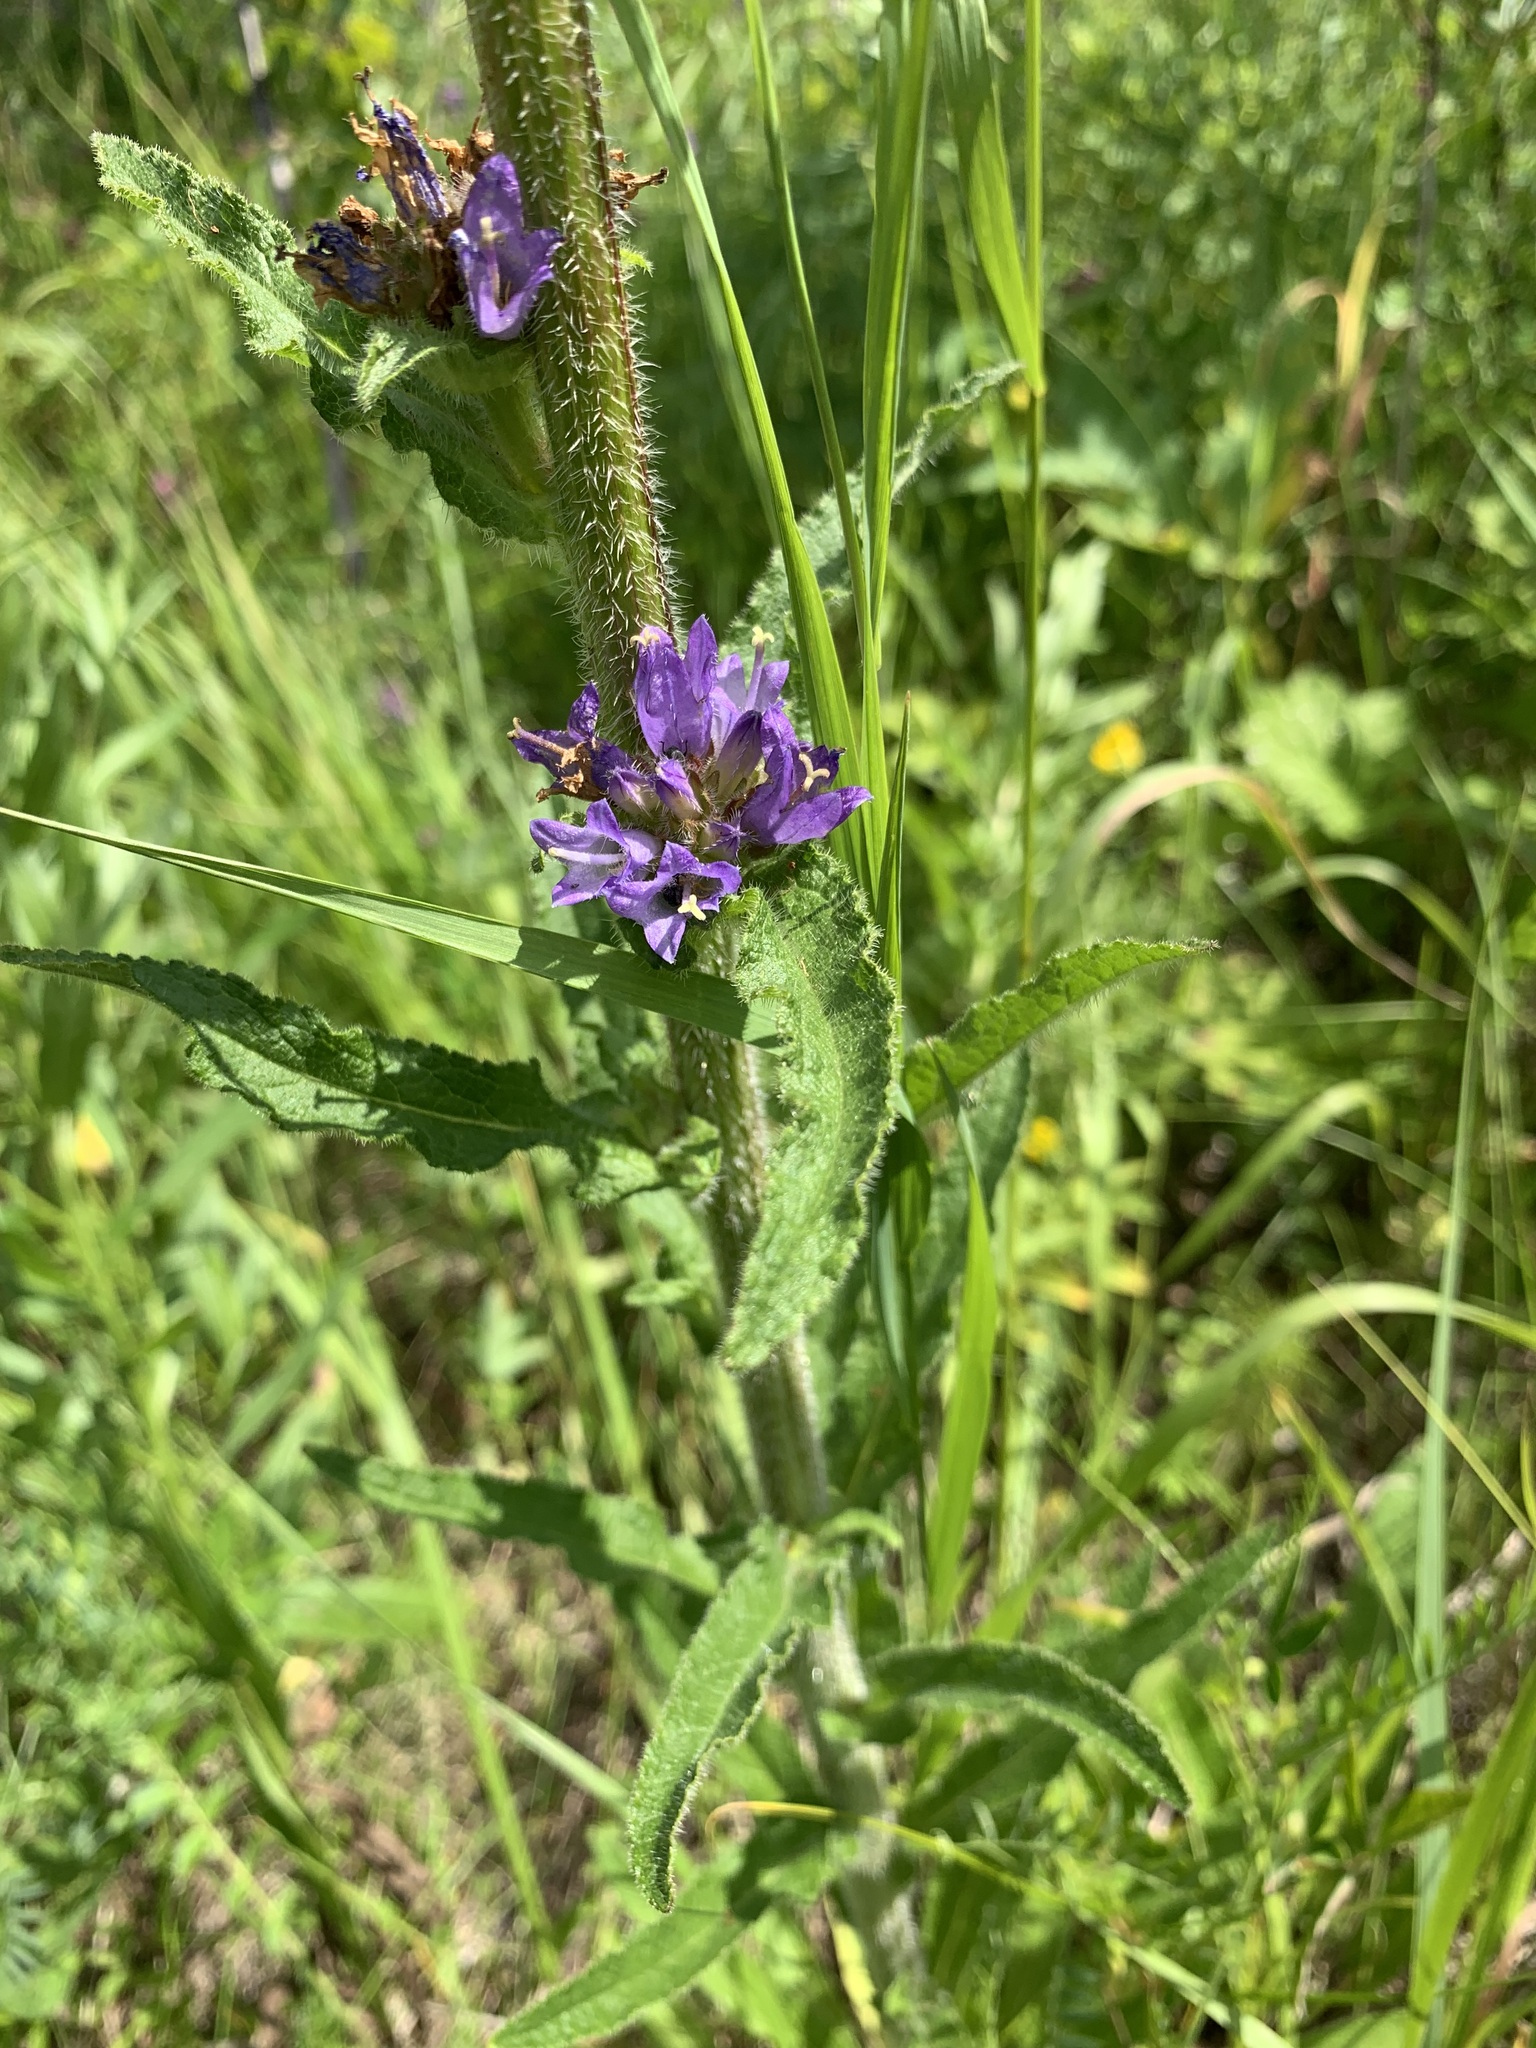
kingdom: Plantae
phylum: Tracheophyta
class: Magnoliopsida
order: Asterales
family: Campanulaceae
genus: Campanula
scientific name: Campanula cervicaria
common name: Bristly bellflower
